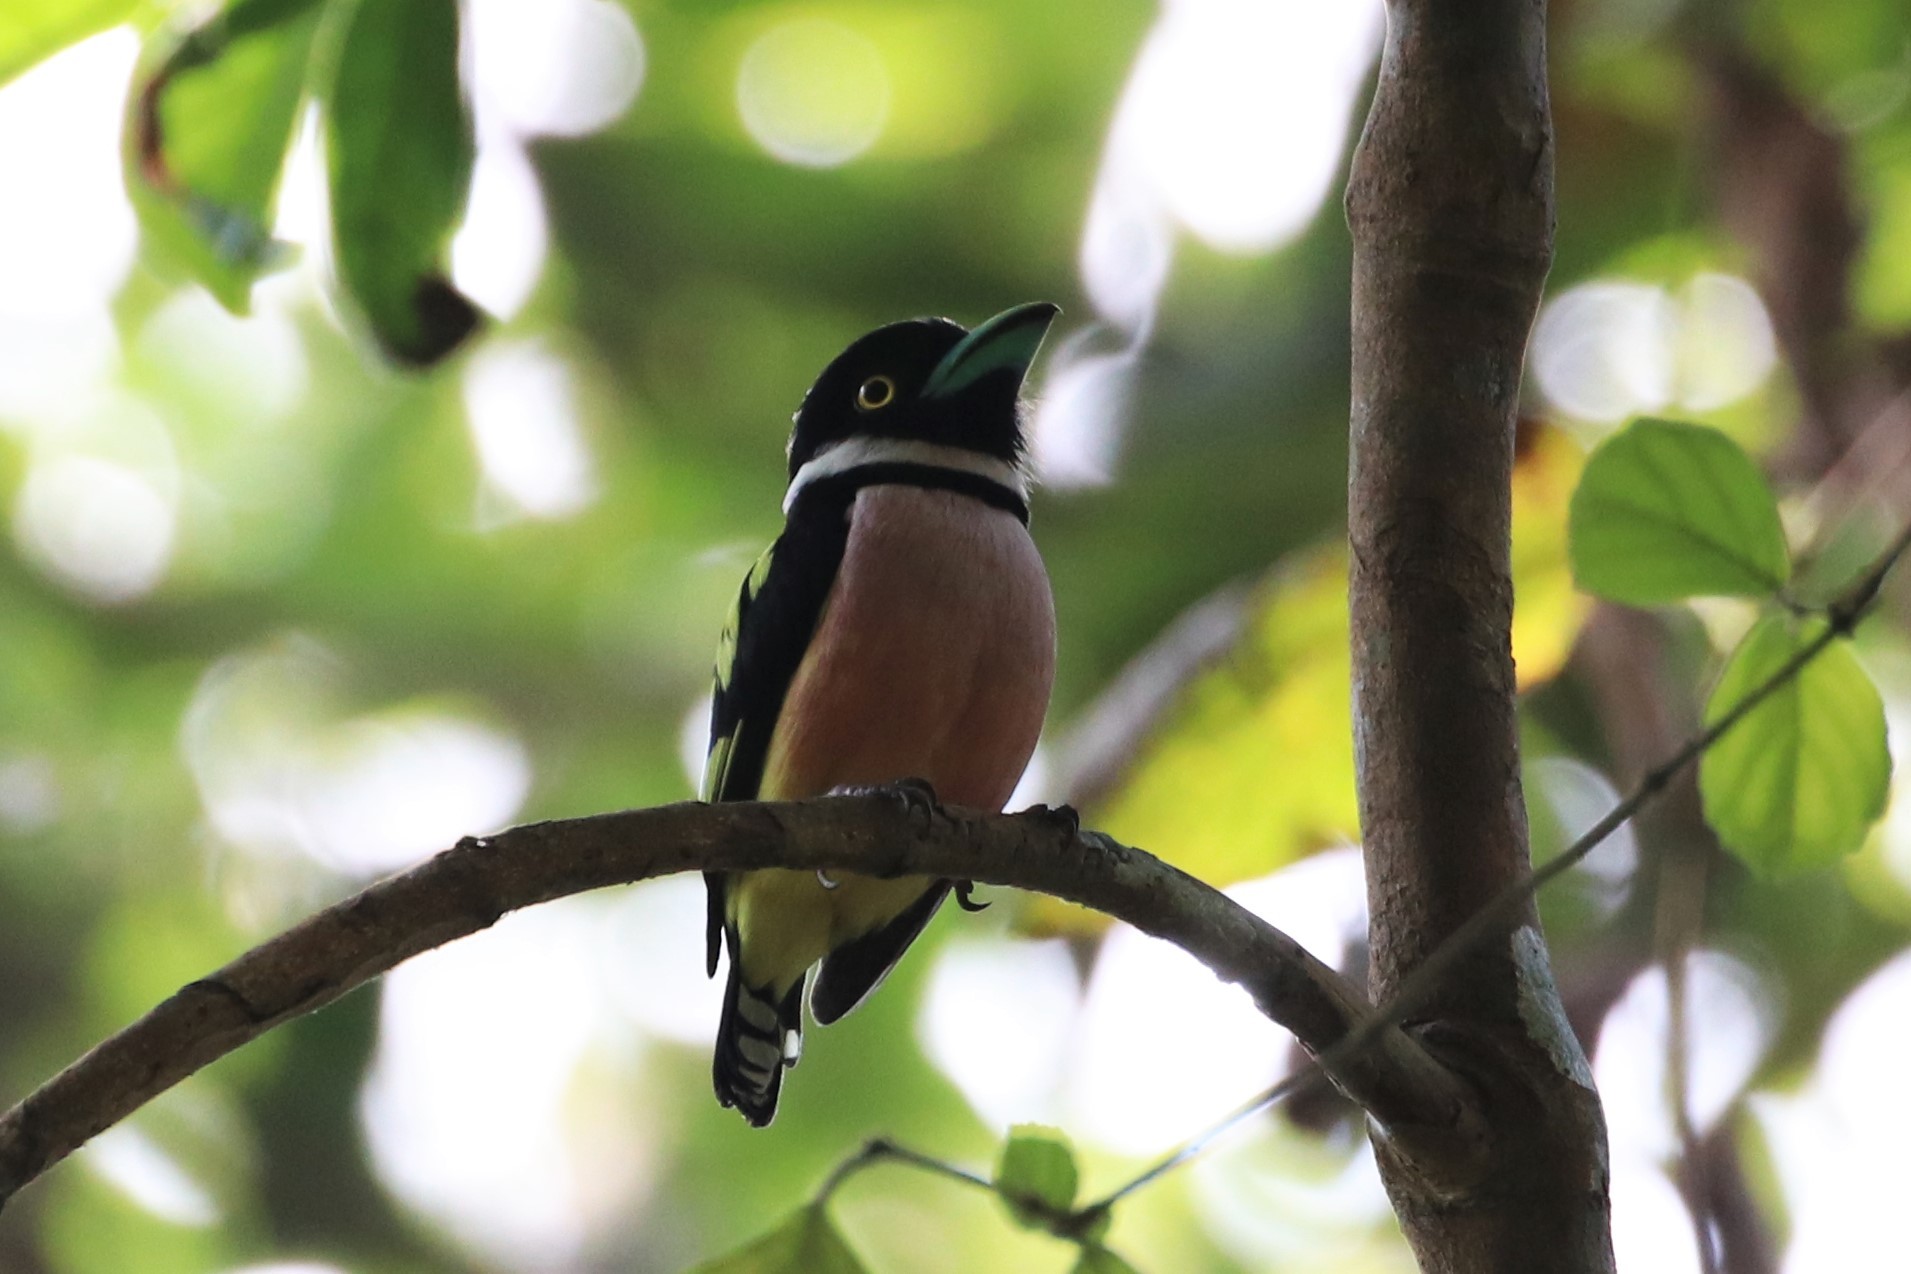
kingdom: Animalia
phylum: Chordata
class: Aves
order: Passeriformes
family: Eurylaimidae
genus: Eurylaimus
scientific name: Eurylaimus ochromalus
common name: Black-and-yellow broadbill
